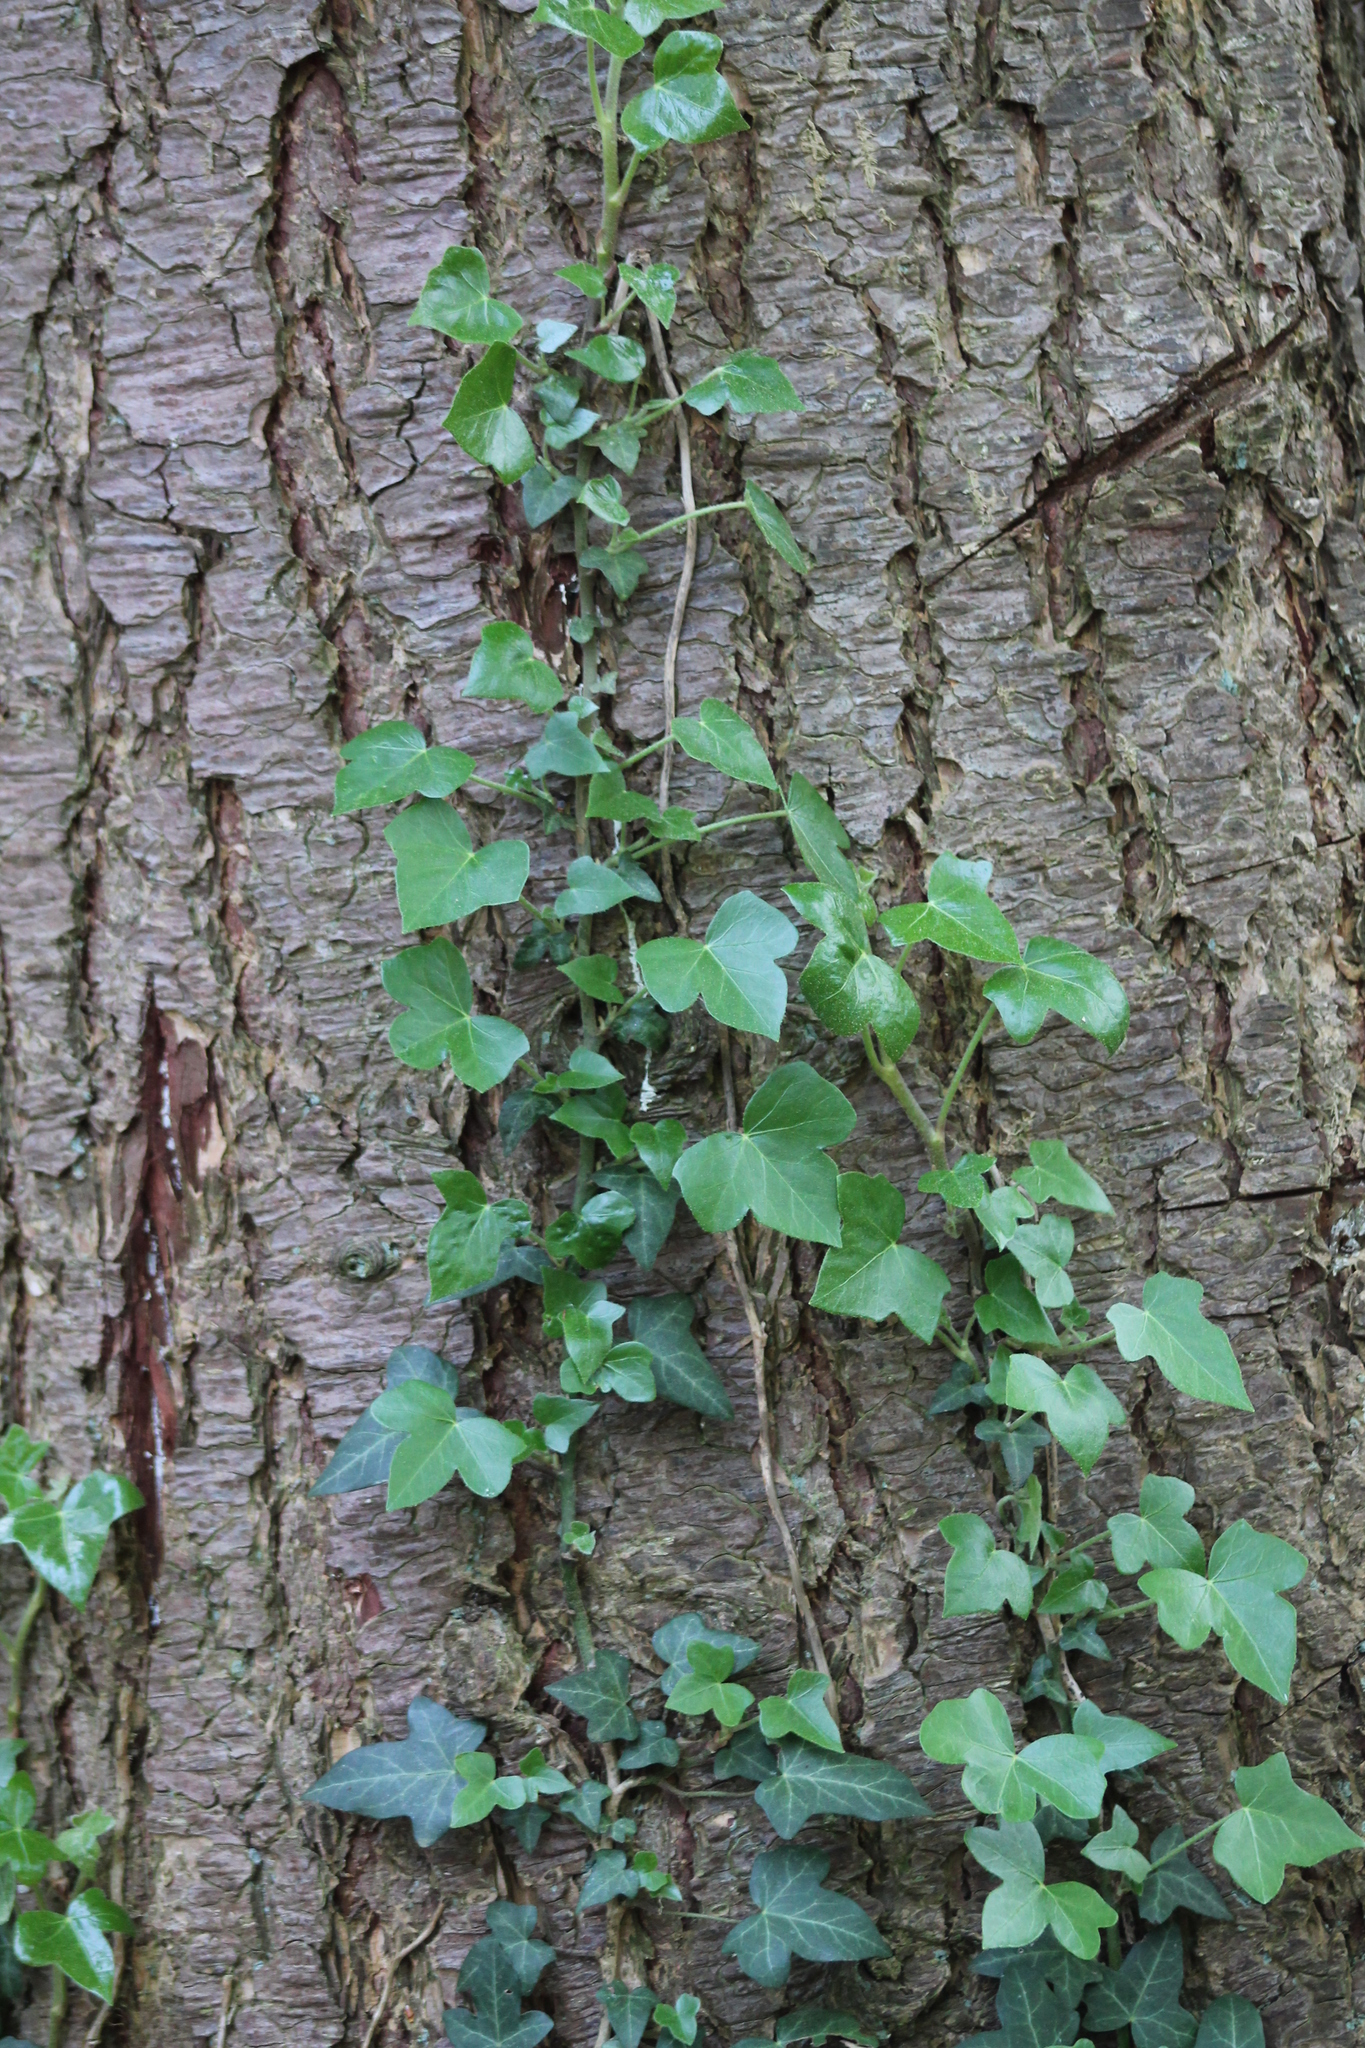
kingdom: Plantae
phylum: Tracheophyta
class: Magnoliopsida
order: Apiales
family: Araliaceae
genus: Hedera
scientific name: Hedera helix
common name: Ivy
